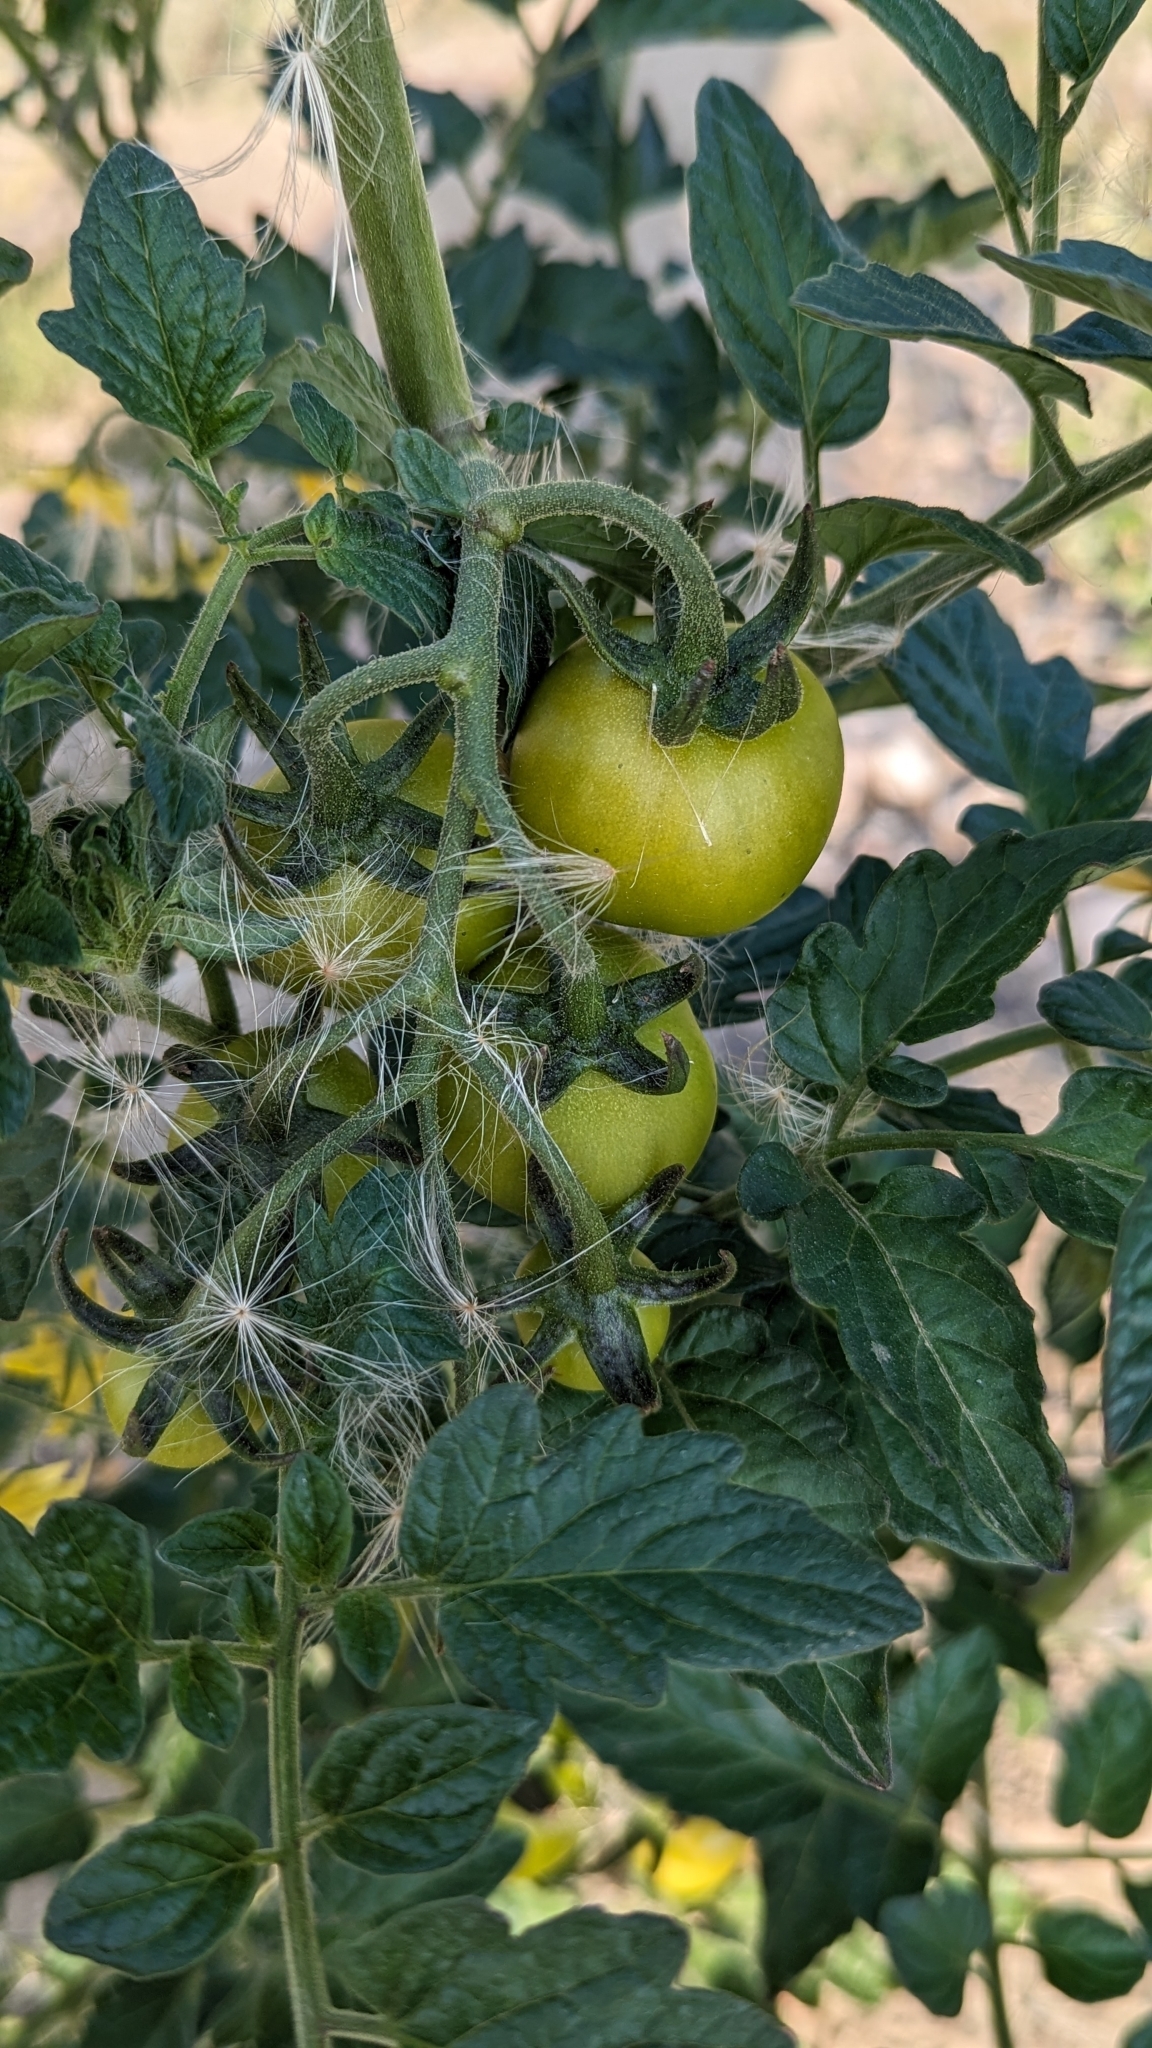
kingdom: Plantae
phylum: Tracheophyta
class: Magnoliopsida
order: Solanales
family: Solanaceae
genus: Solanum
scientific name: Solanum lycopersicum
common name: Garden tomato
